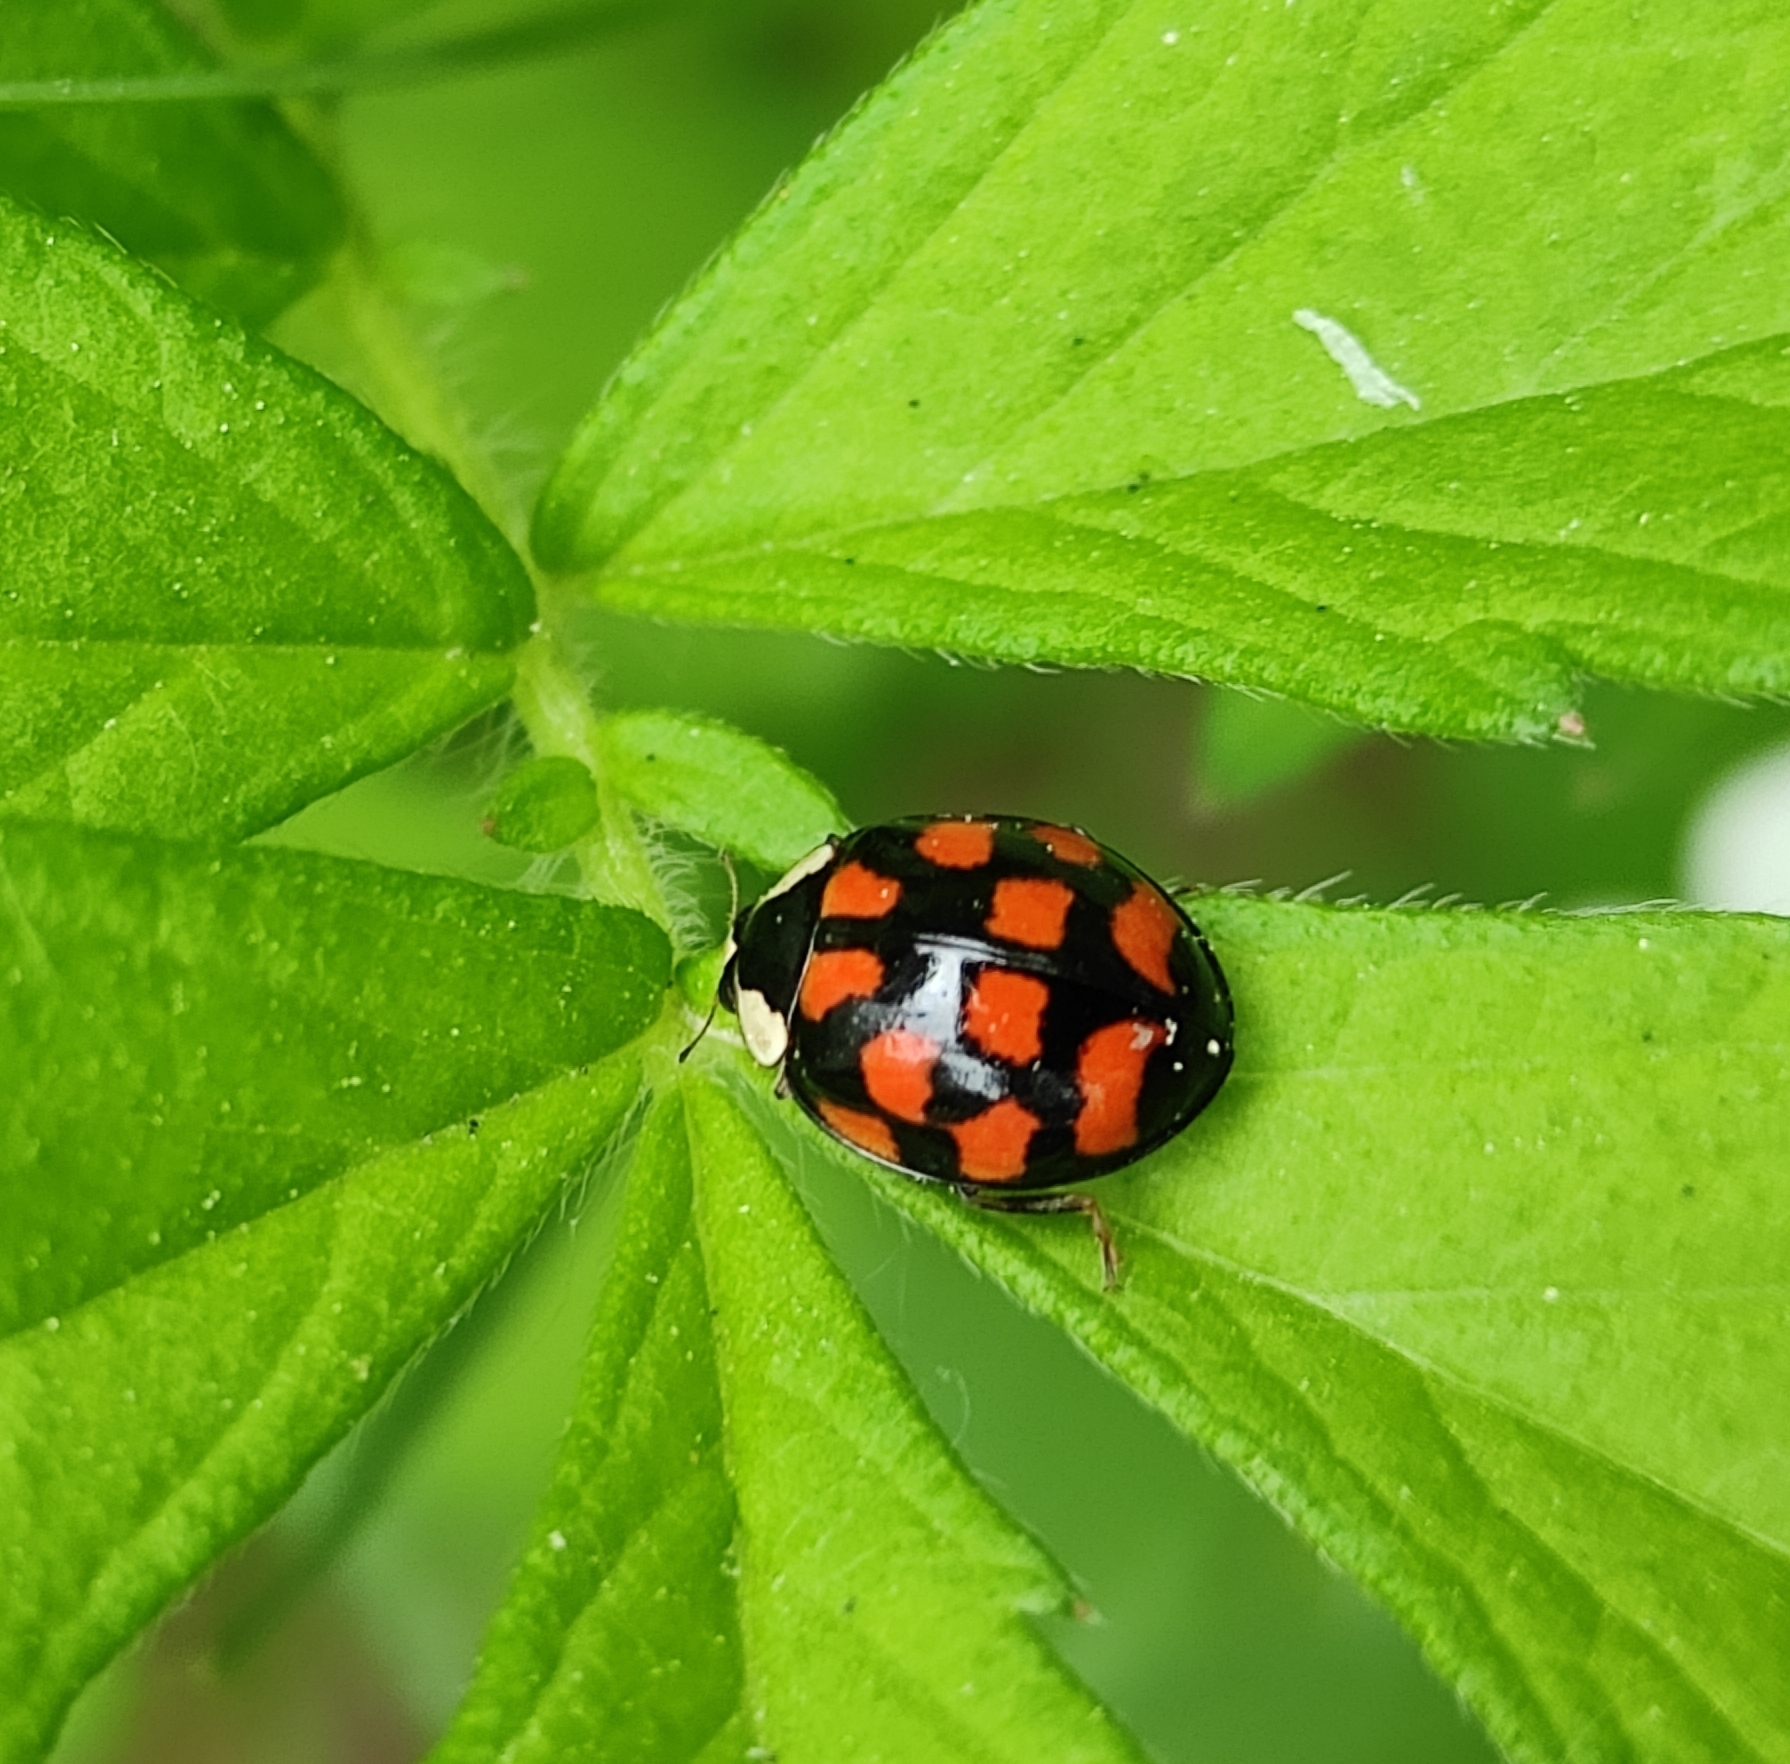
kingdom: Animalia
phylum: Arthropoda
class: Insecta
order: Coleoptera
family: Coccinellidae
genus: Harmonia
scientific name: Harmonia axyridis
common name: Harlequin ladybird
